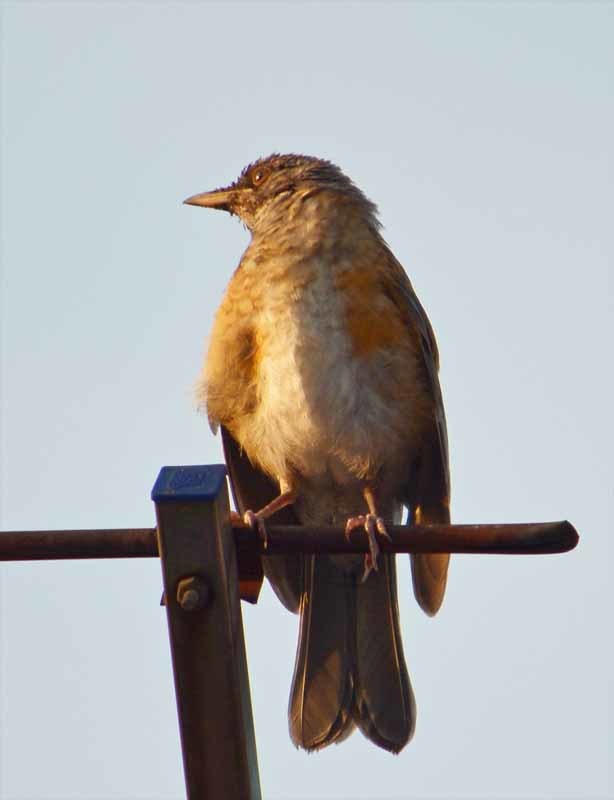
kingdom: Animalia
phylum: Chordata
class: Aves
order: Passeriformes
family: Turdidae
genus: Turdus
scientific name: Turdus rufopalliatus
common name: Rufous-backed robin
